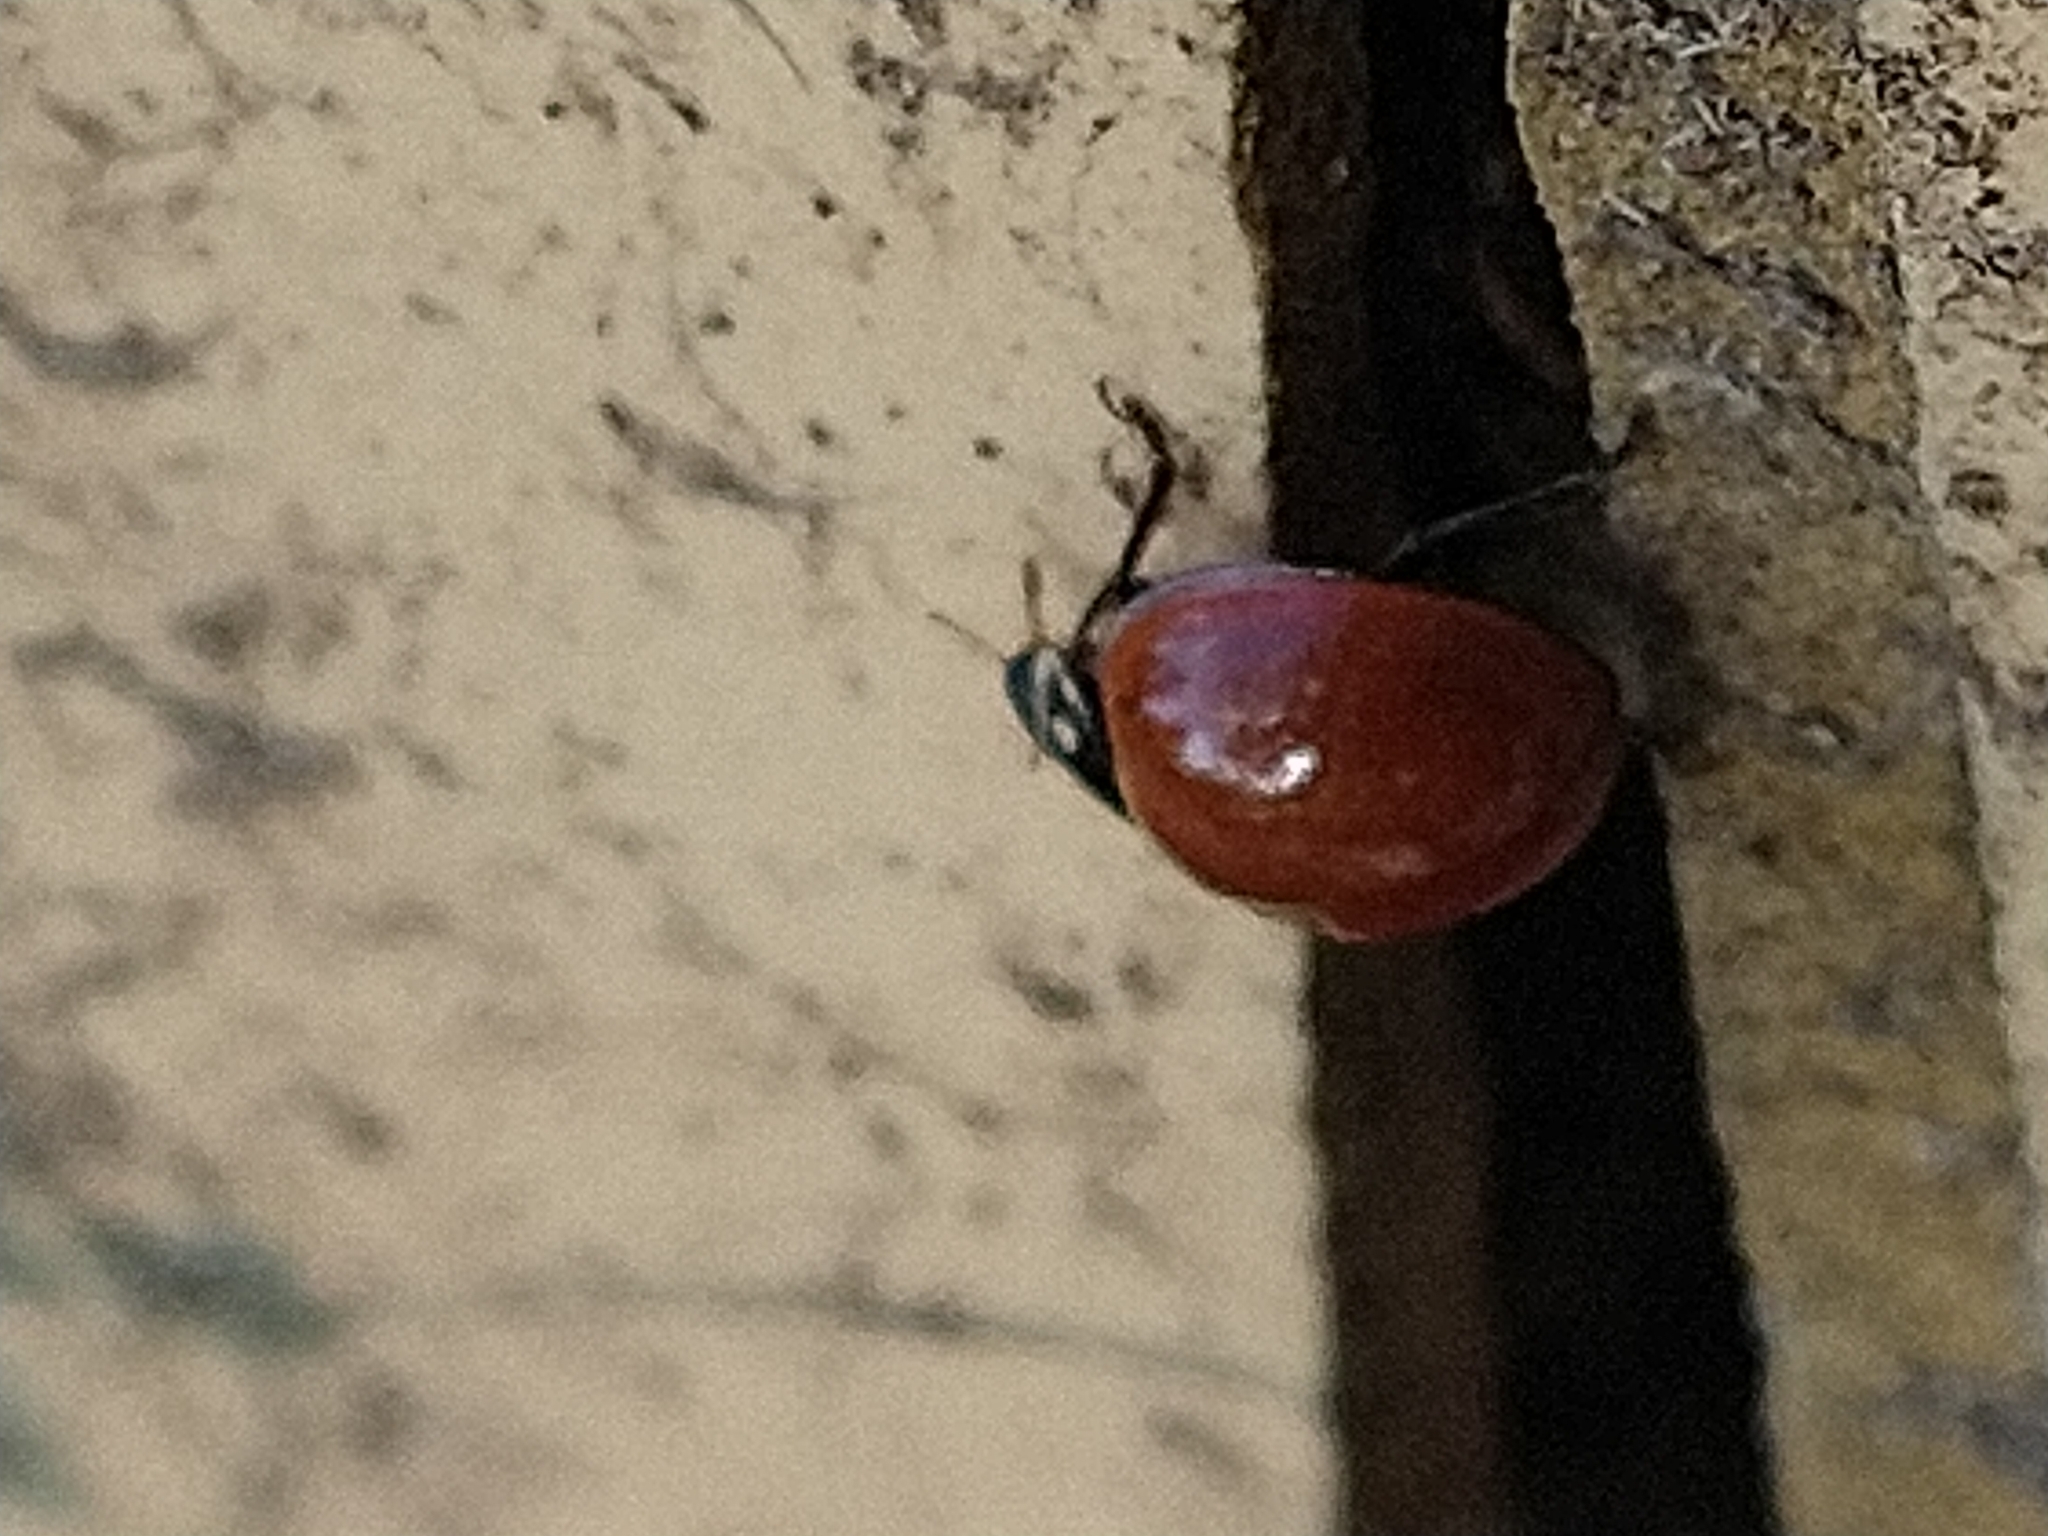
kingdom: Animalia
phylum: Arthropoda
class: Insecta
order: Coleoptera
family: Coccinellidae
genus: Cycloneda
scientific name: Cycloneda sanguinea
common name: Ladybird beetle
